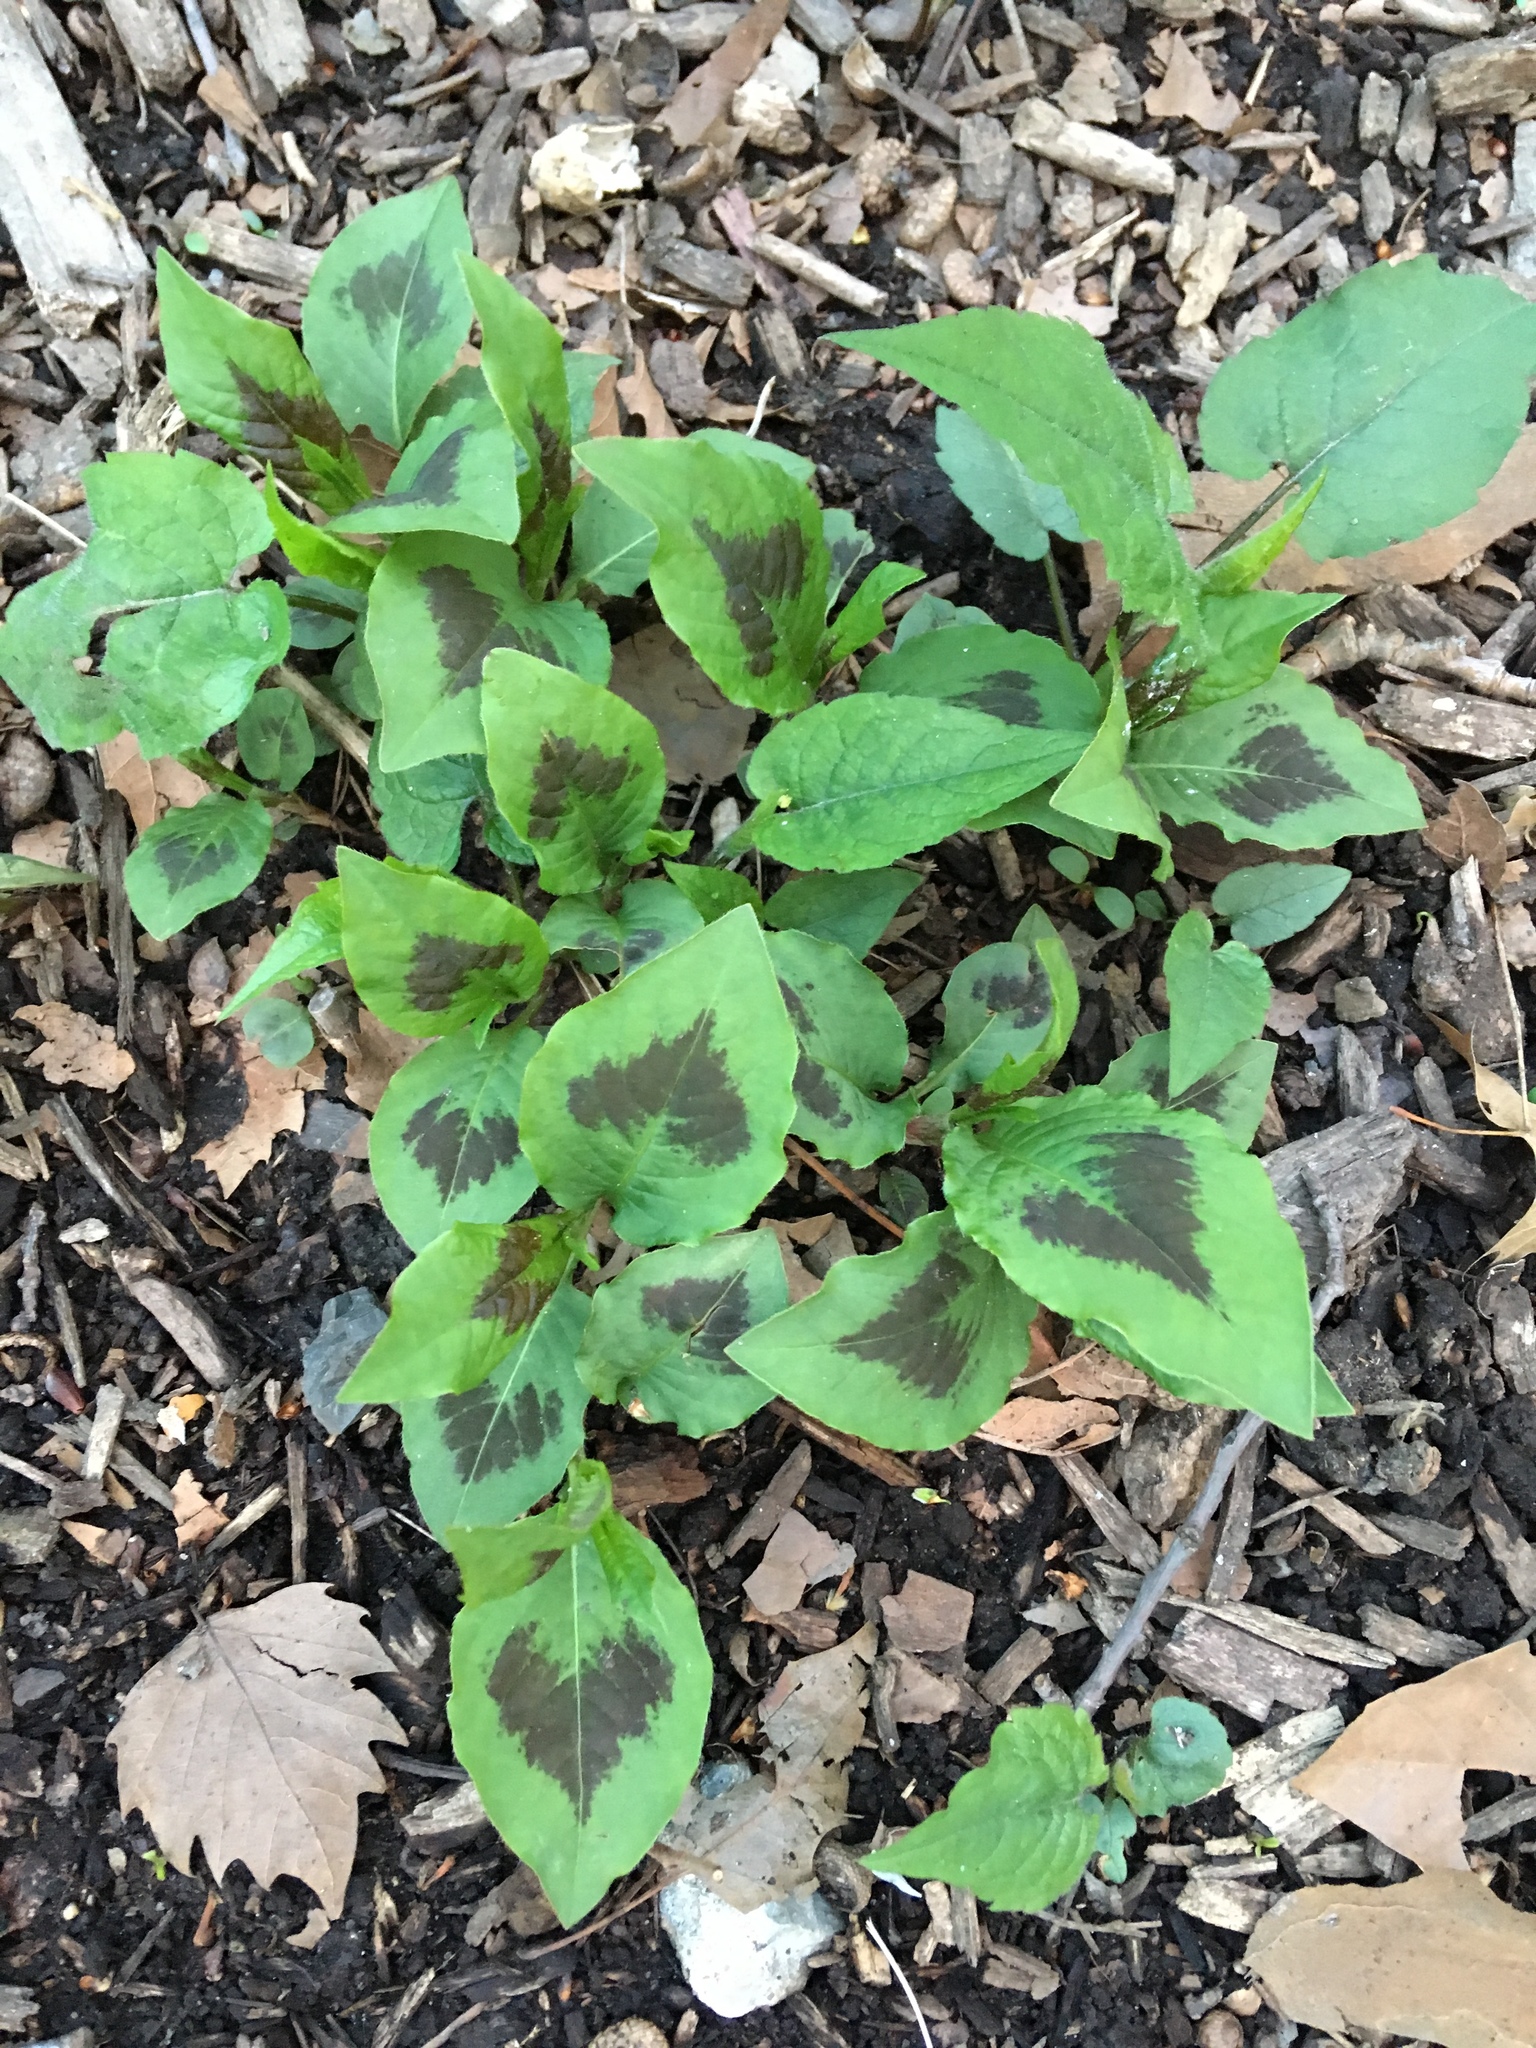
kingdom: Plantae
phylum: Tracheophyta
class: Magnoliopsida
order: Caryophyllales
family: Polygonaceae
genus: Persicaria
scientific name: Persicaria virginiana
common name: Jumpseed
